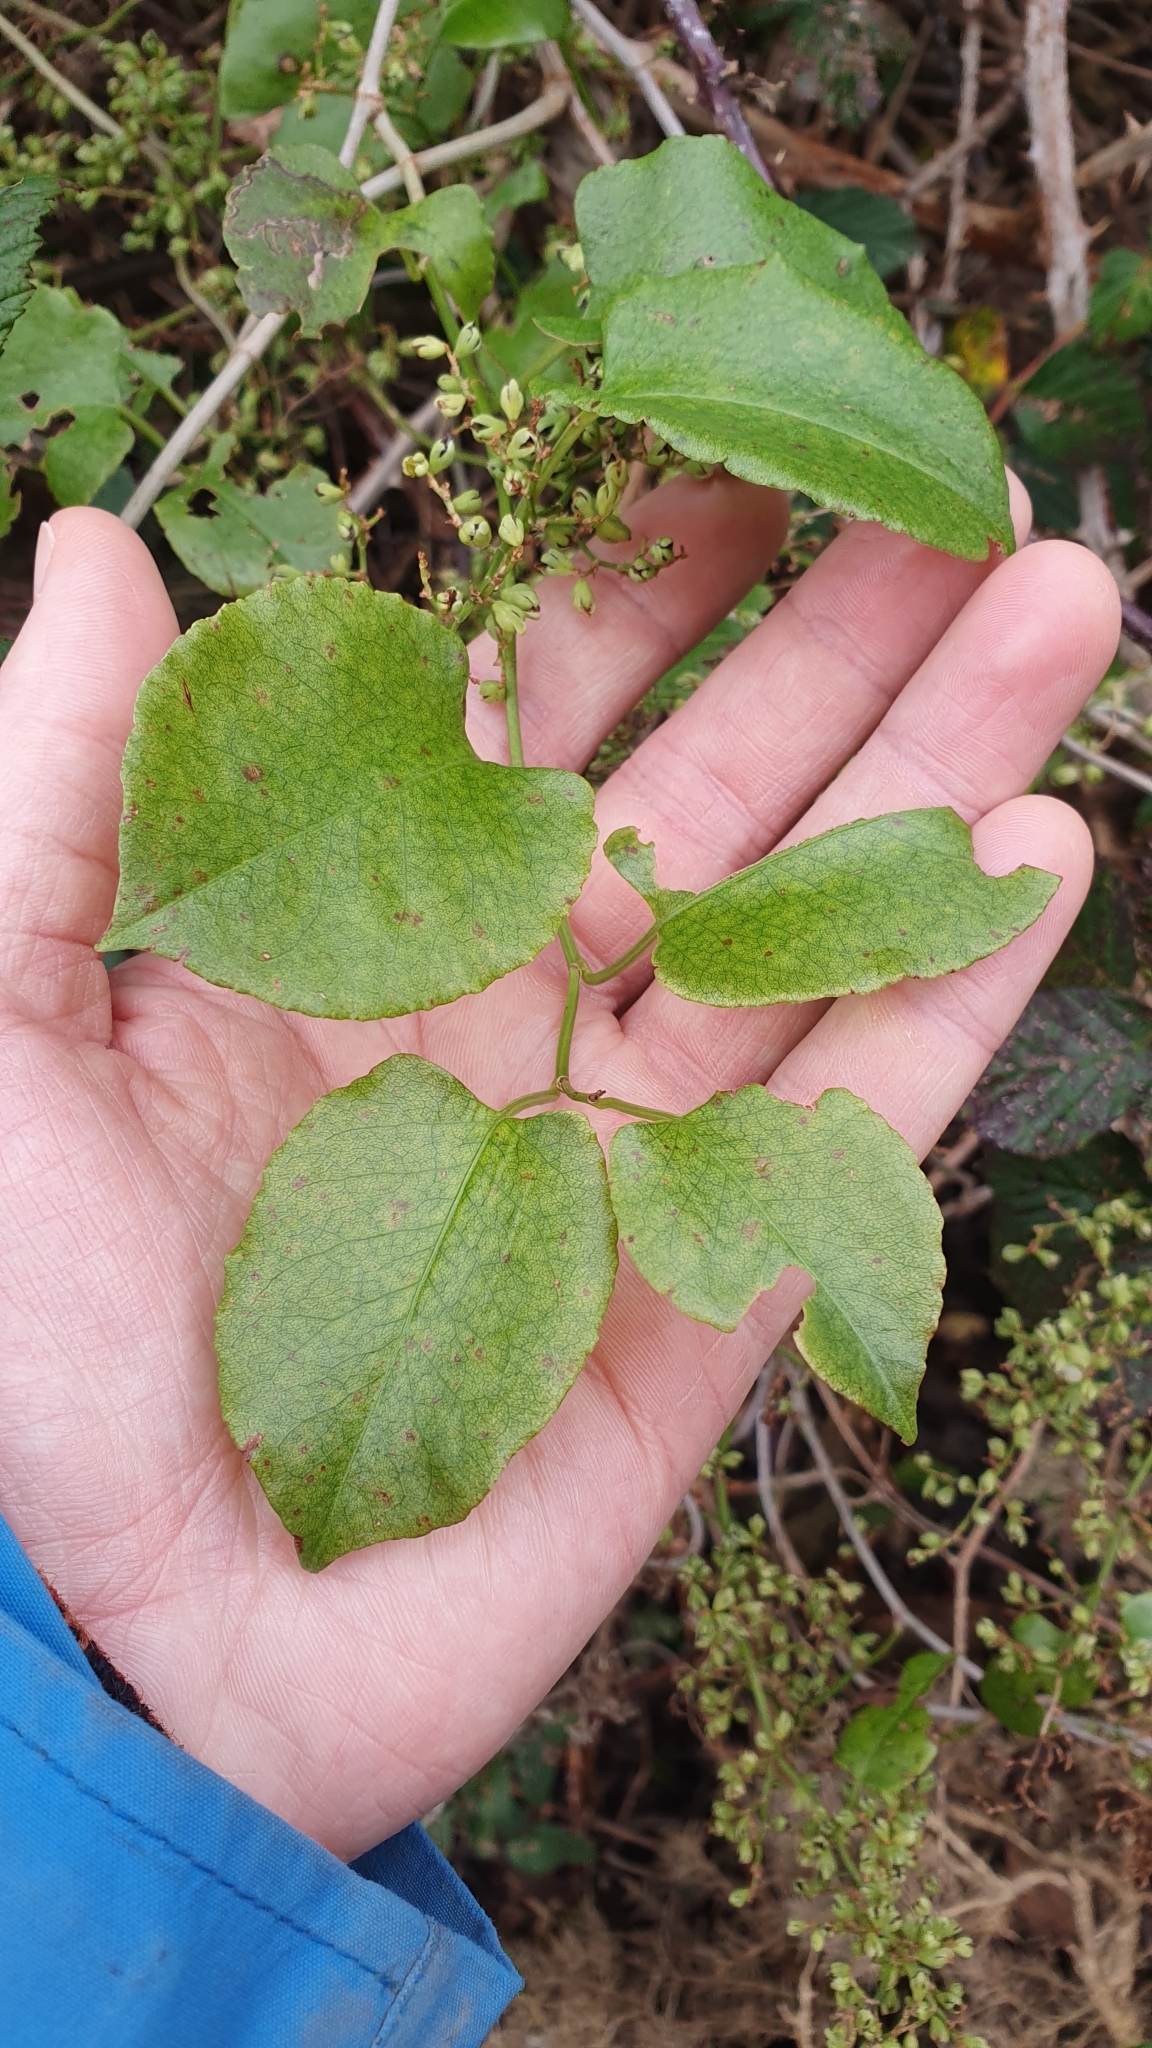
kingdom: Plantae
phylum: Tracheophyta
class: Magnoliopsida
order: Caryophyllales
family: Polygonaceae
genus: Muehlenbeckia
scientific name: Muehlenbeckia australis
